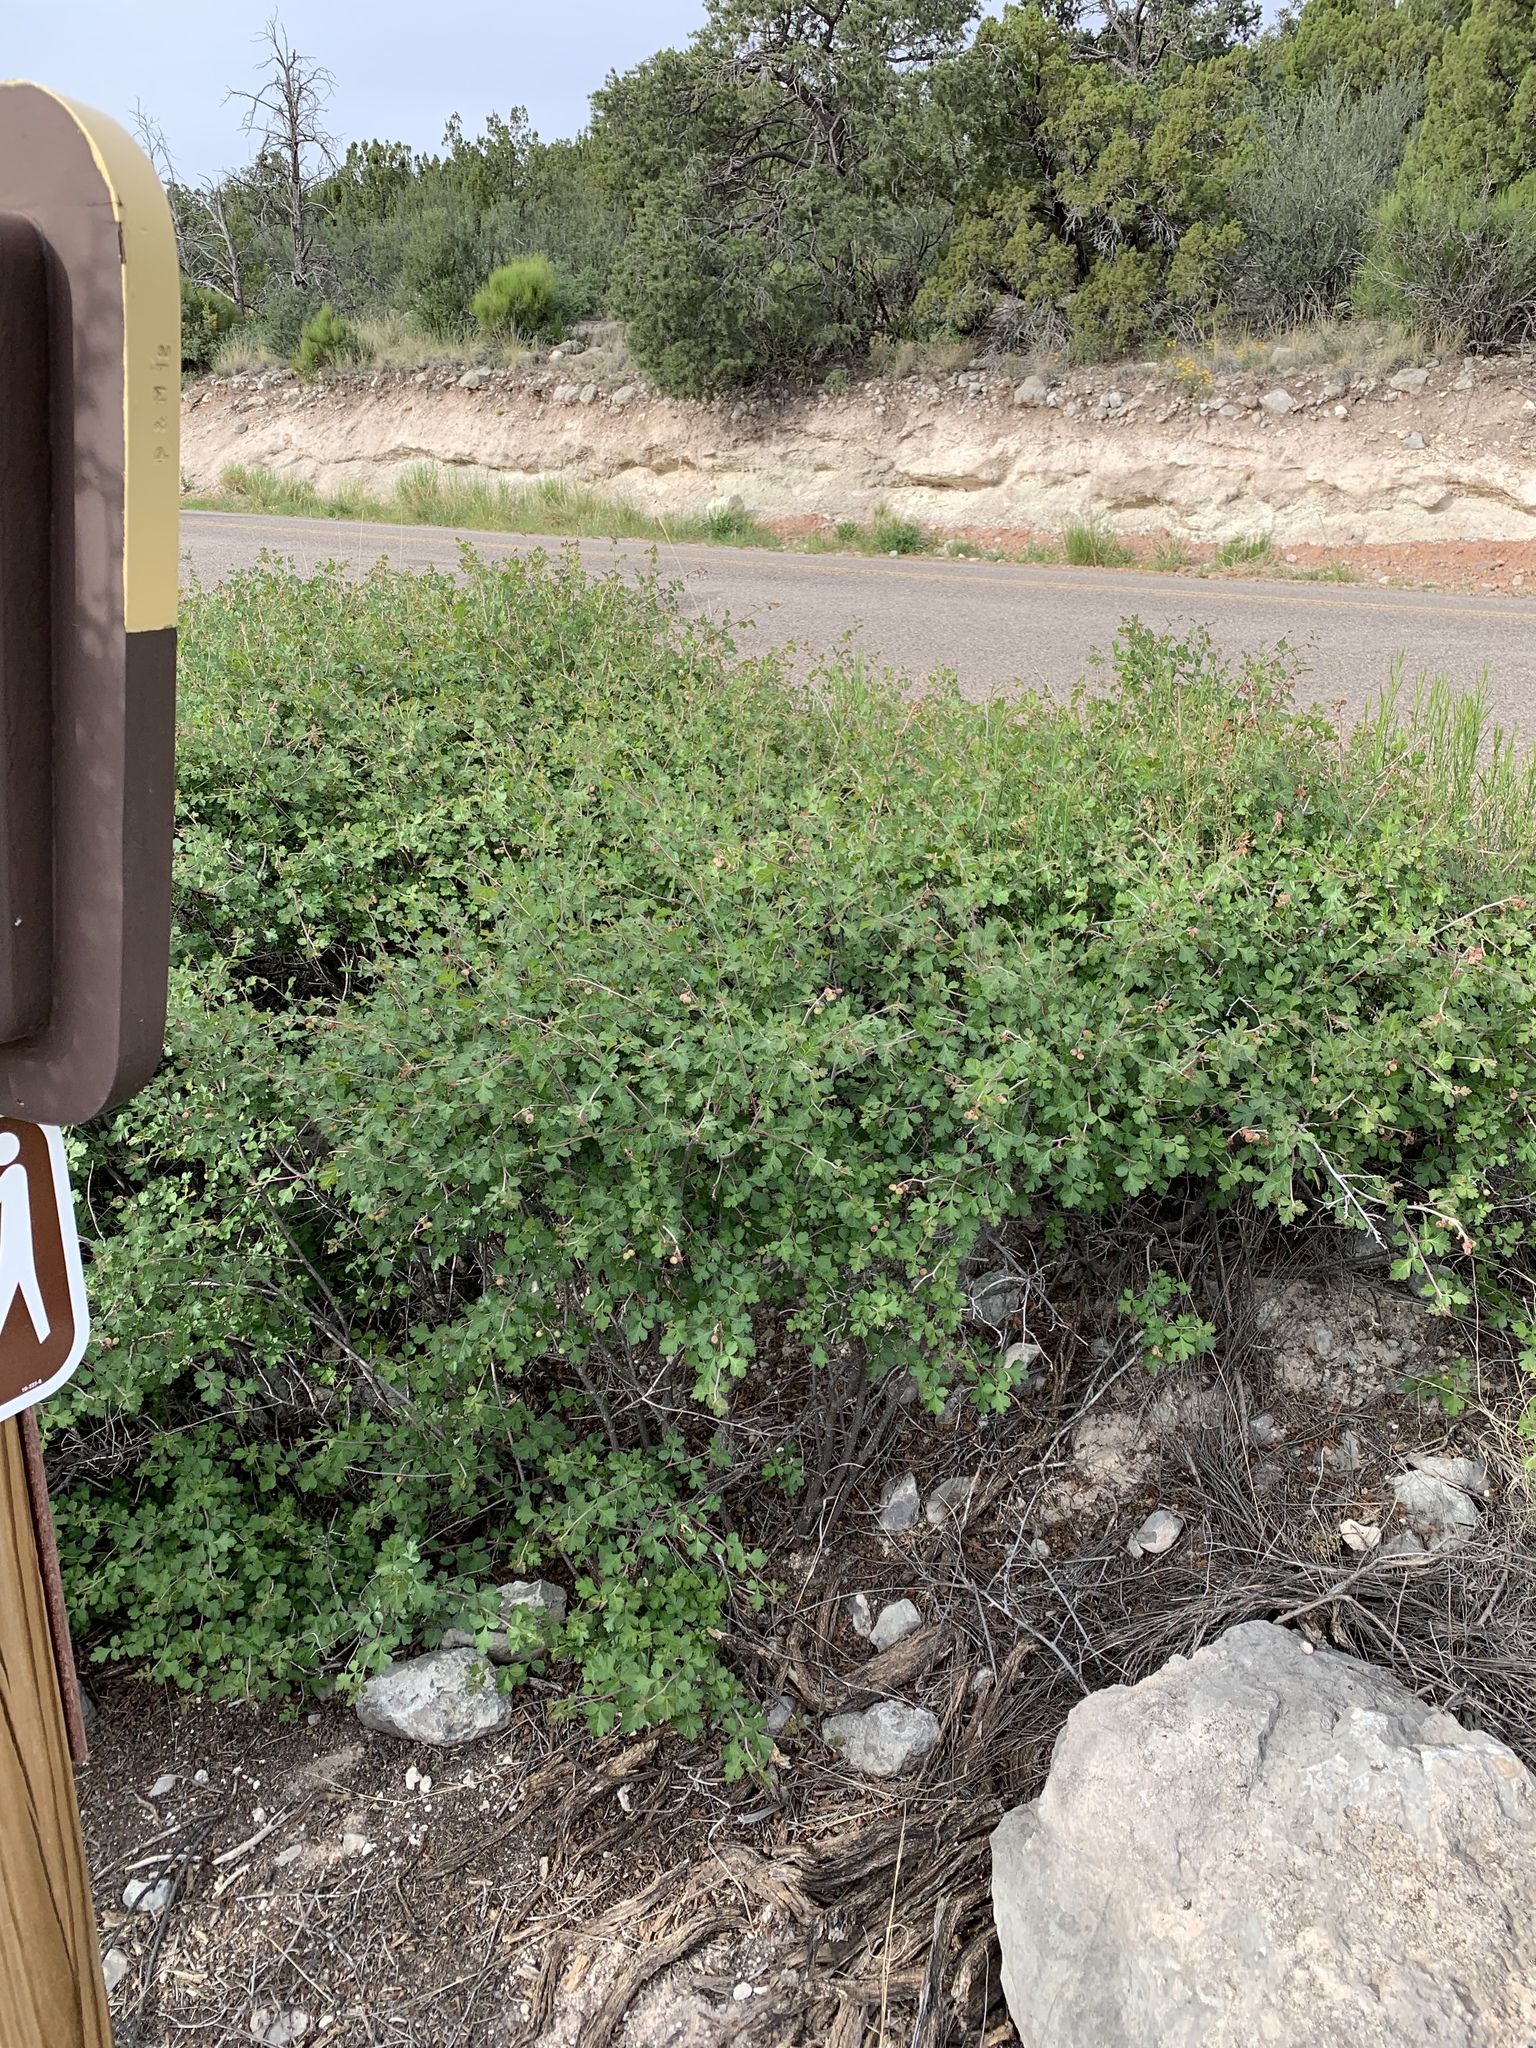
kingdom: Plantae
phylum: Tracheophyta
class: Magnoliopsida
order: Sapindales
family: Anacardiaceae
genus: Rhus
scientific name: Rhus aromatica
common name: Aromatic sumac
